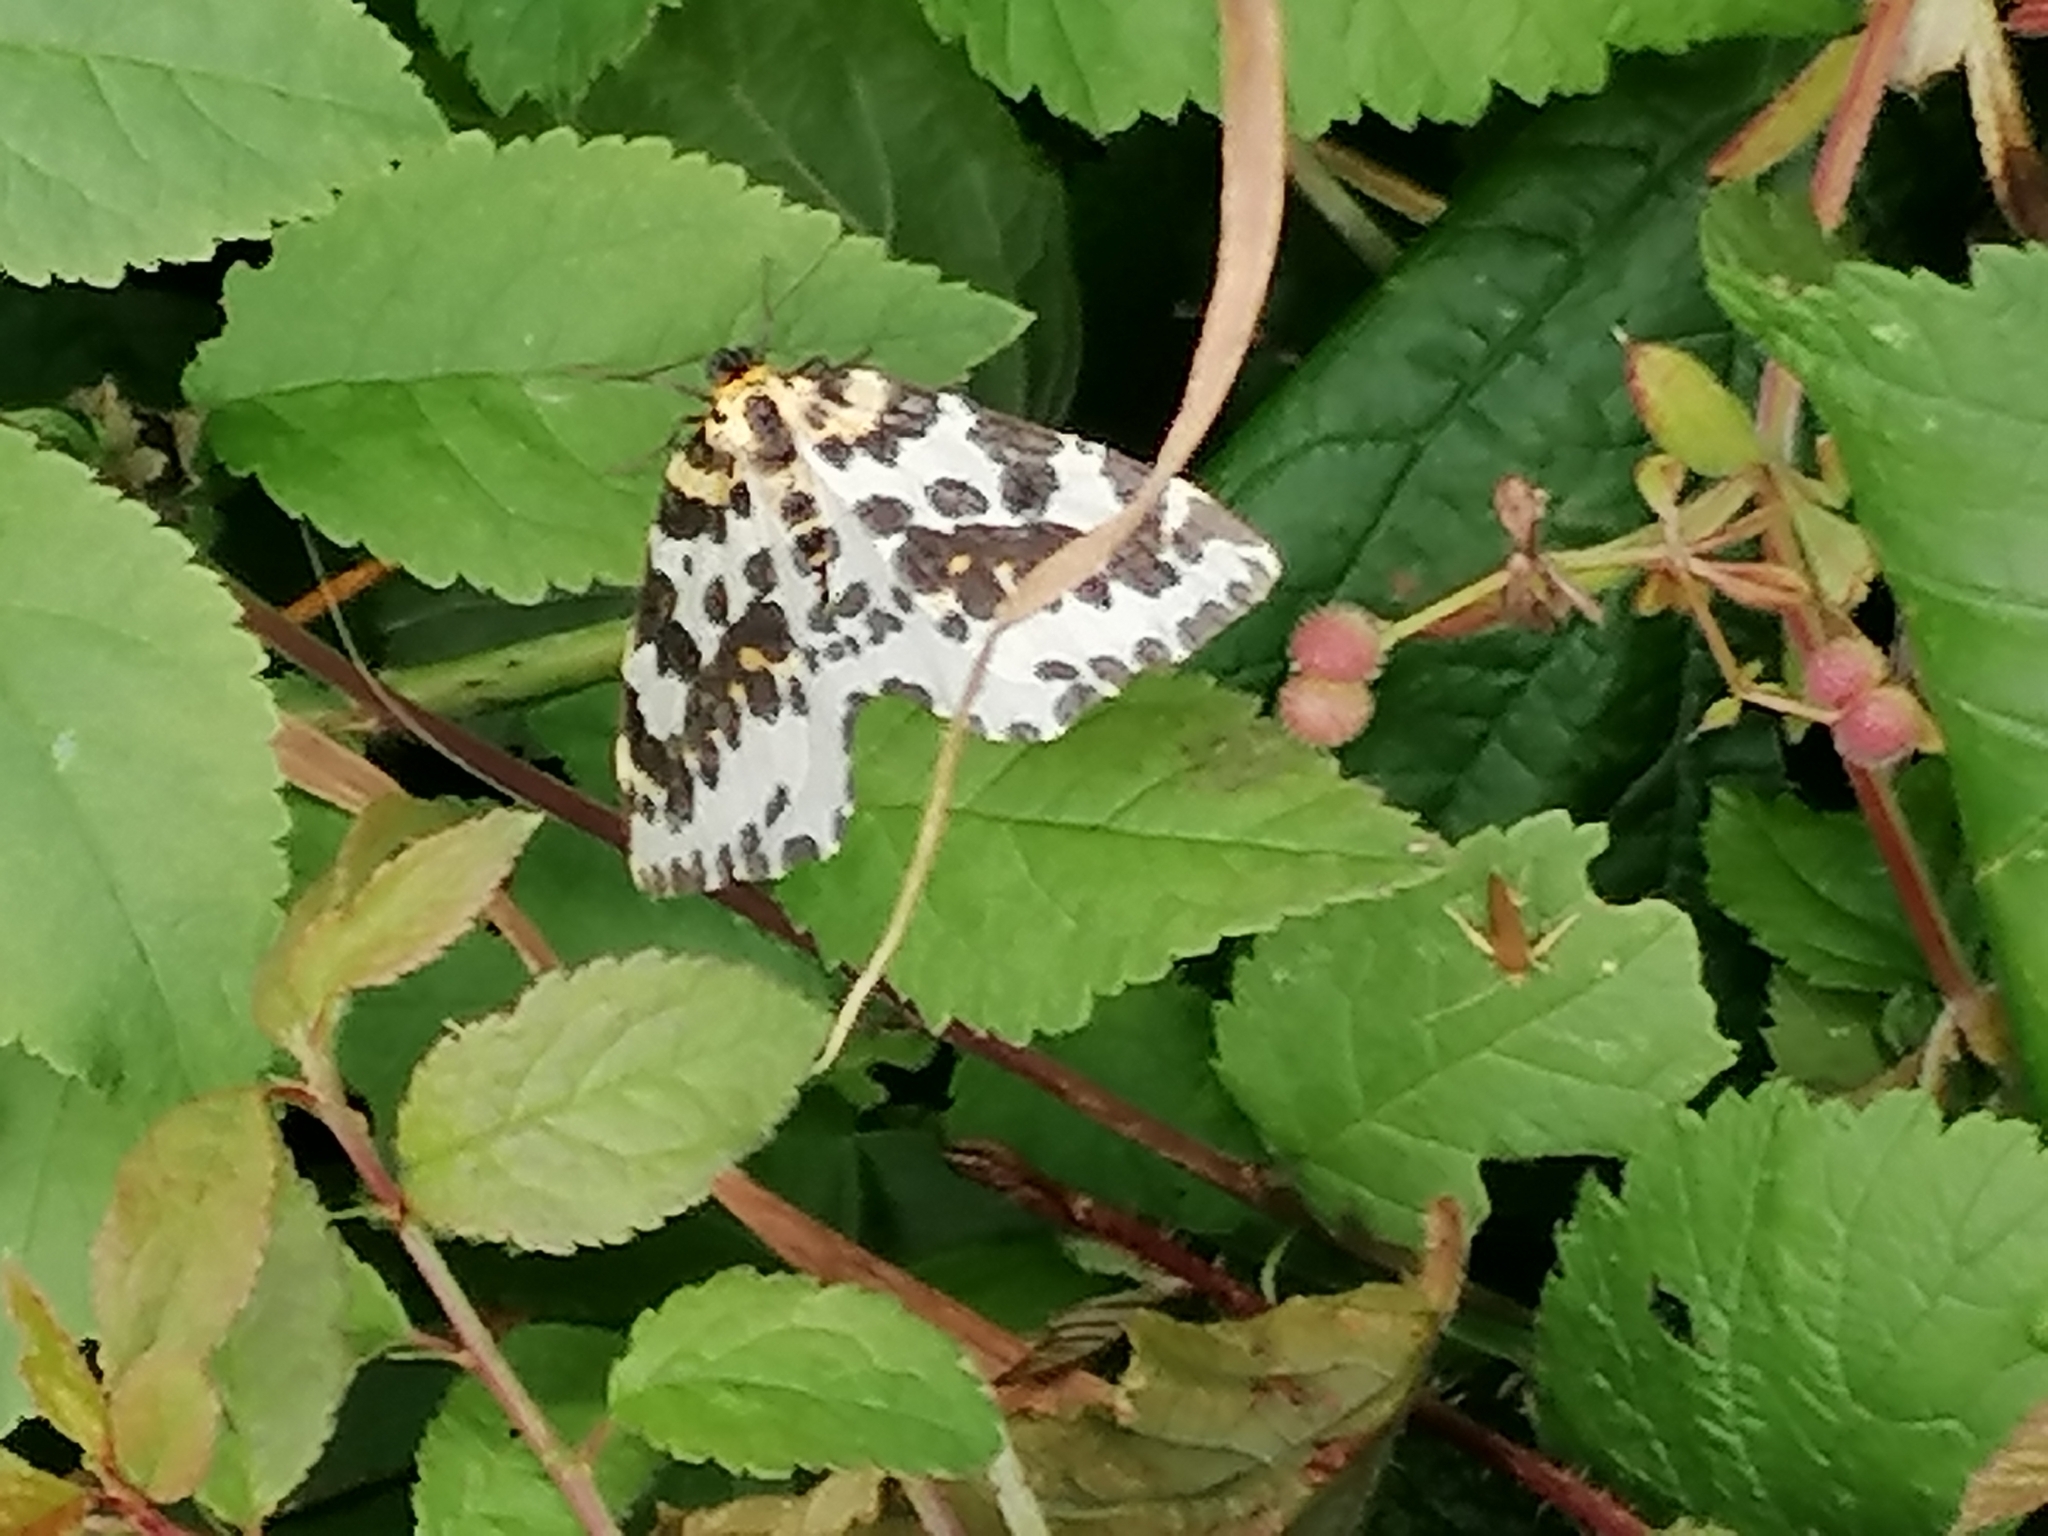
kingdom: Animalia
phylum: Arthropoda
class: Insecta
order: Lepidoptera
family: Geometridae
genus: Abraxas
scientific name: Abraxas grossulariata
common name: Magpie
